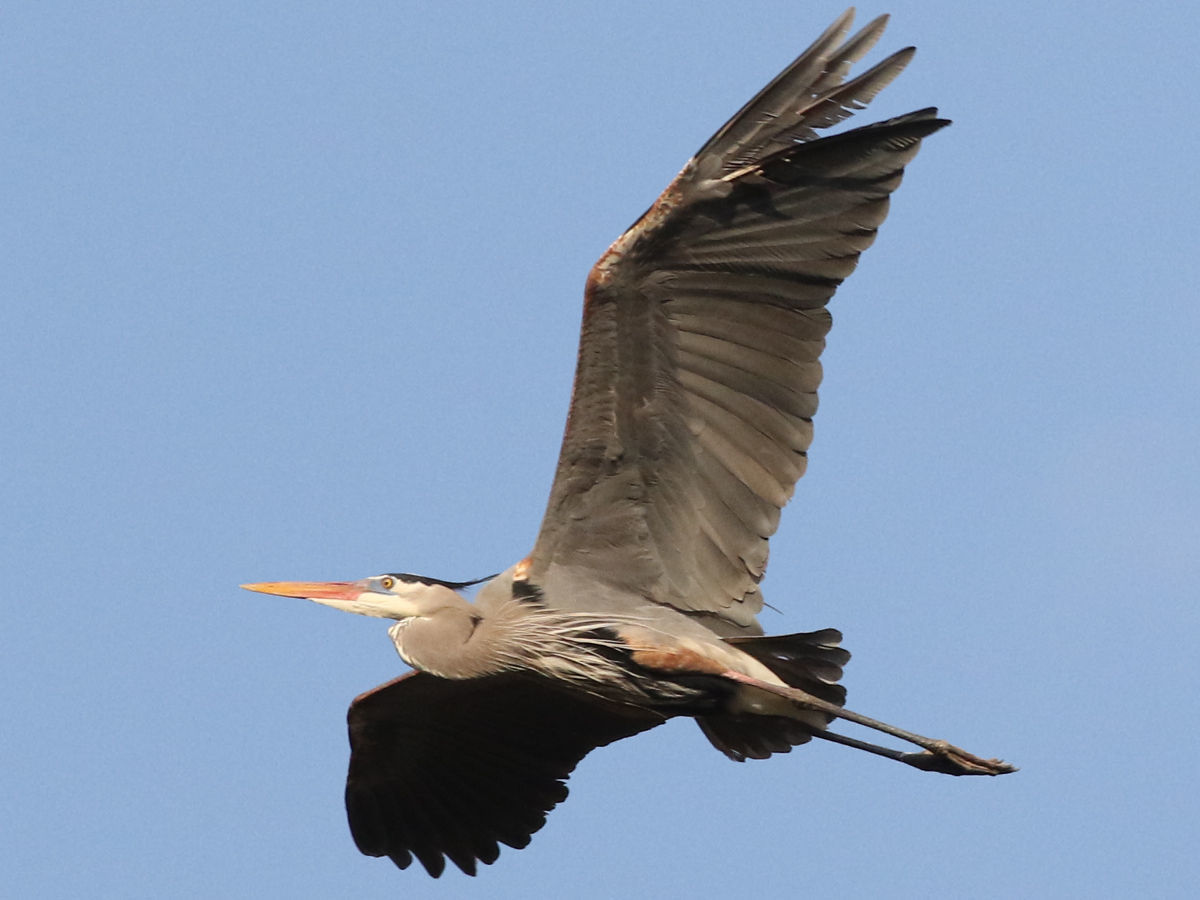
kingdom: Animalia
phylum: Chordata
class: Aves
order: Pelecaniformes
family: Ardeidae
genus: Ardea
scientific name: Ardea herodias
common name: Great blue heron
